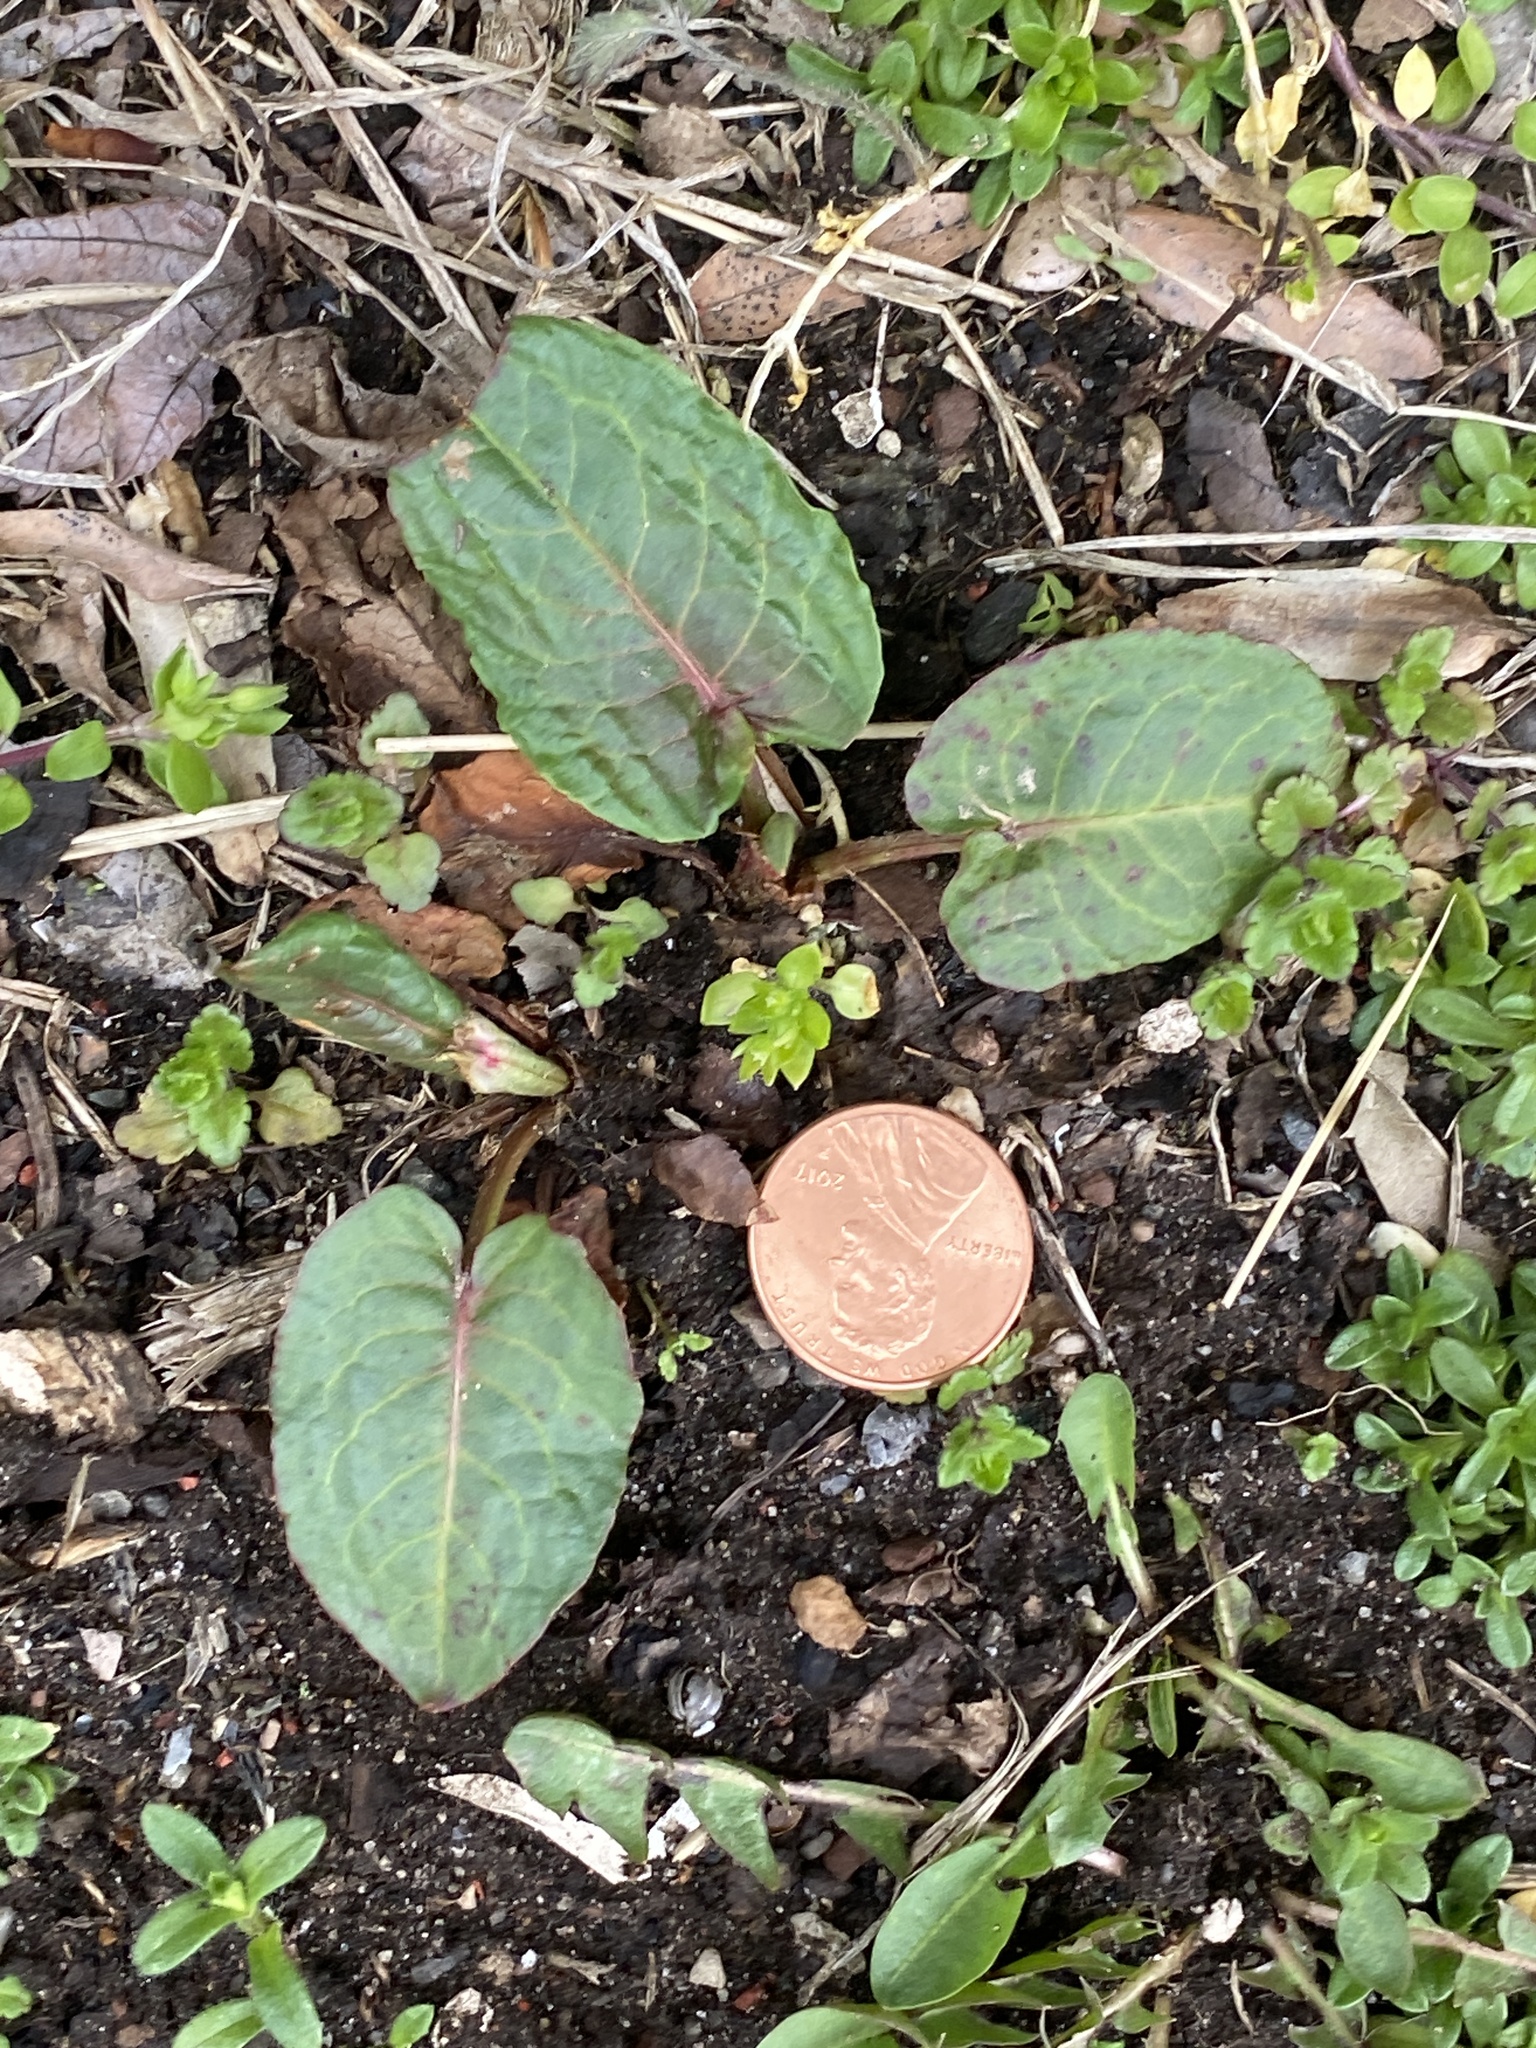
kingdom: Plantae
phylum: Tracheophyta
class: Magnoliopsida
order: Caryophyllales
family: Polygonaceae
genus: Rumex
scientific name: Rumex obtusifolius
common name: Bitter dock
